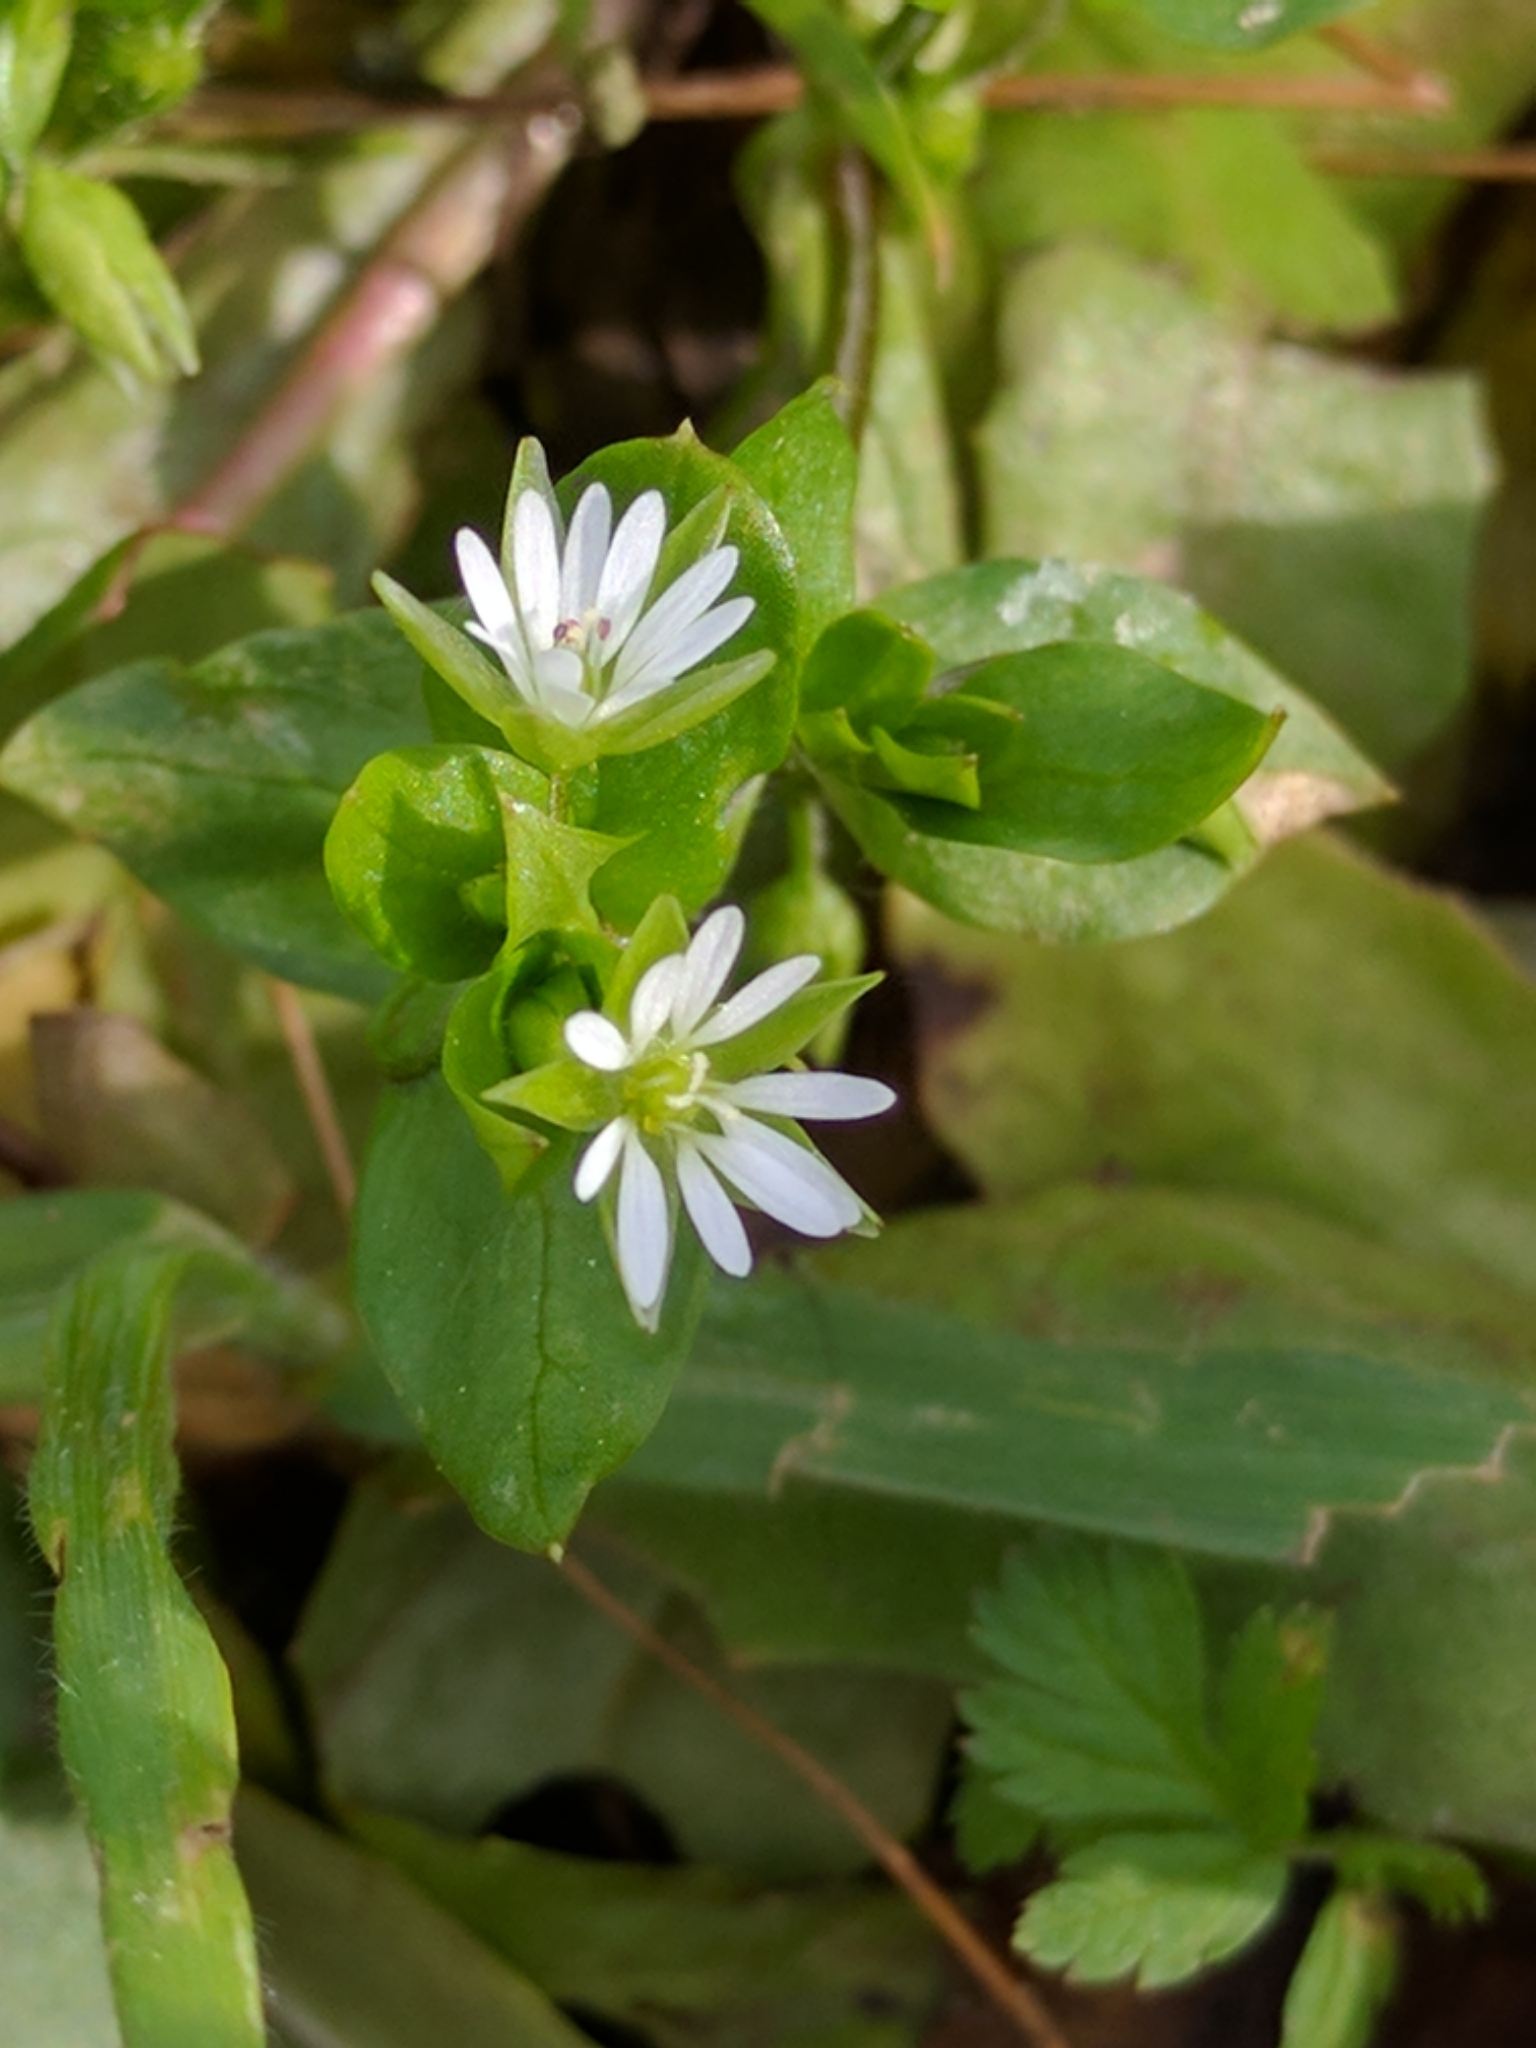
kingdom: Plantae
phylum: Tracheophyta
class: Magnoliopsida
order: Caryophyllales
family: Caryophyllaceae
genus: Stellaria
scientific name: Stellaria media
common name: Common chickweed
